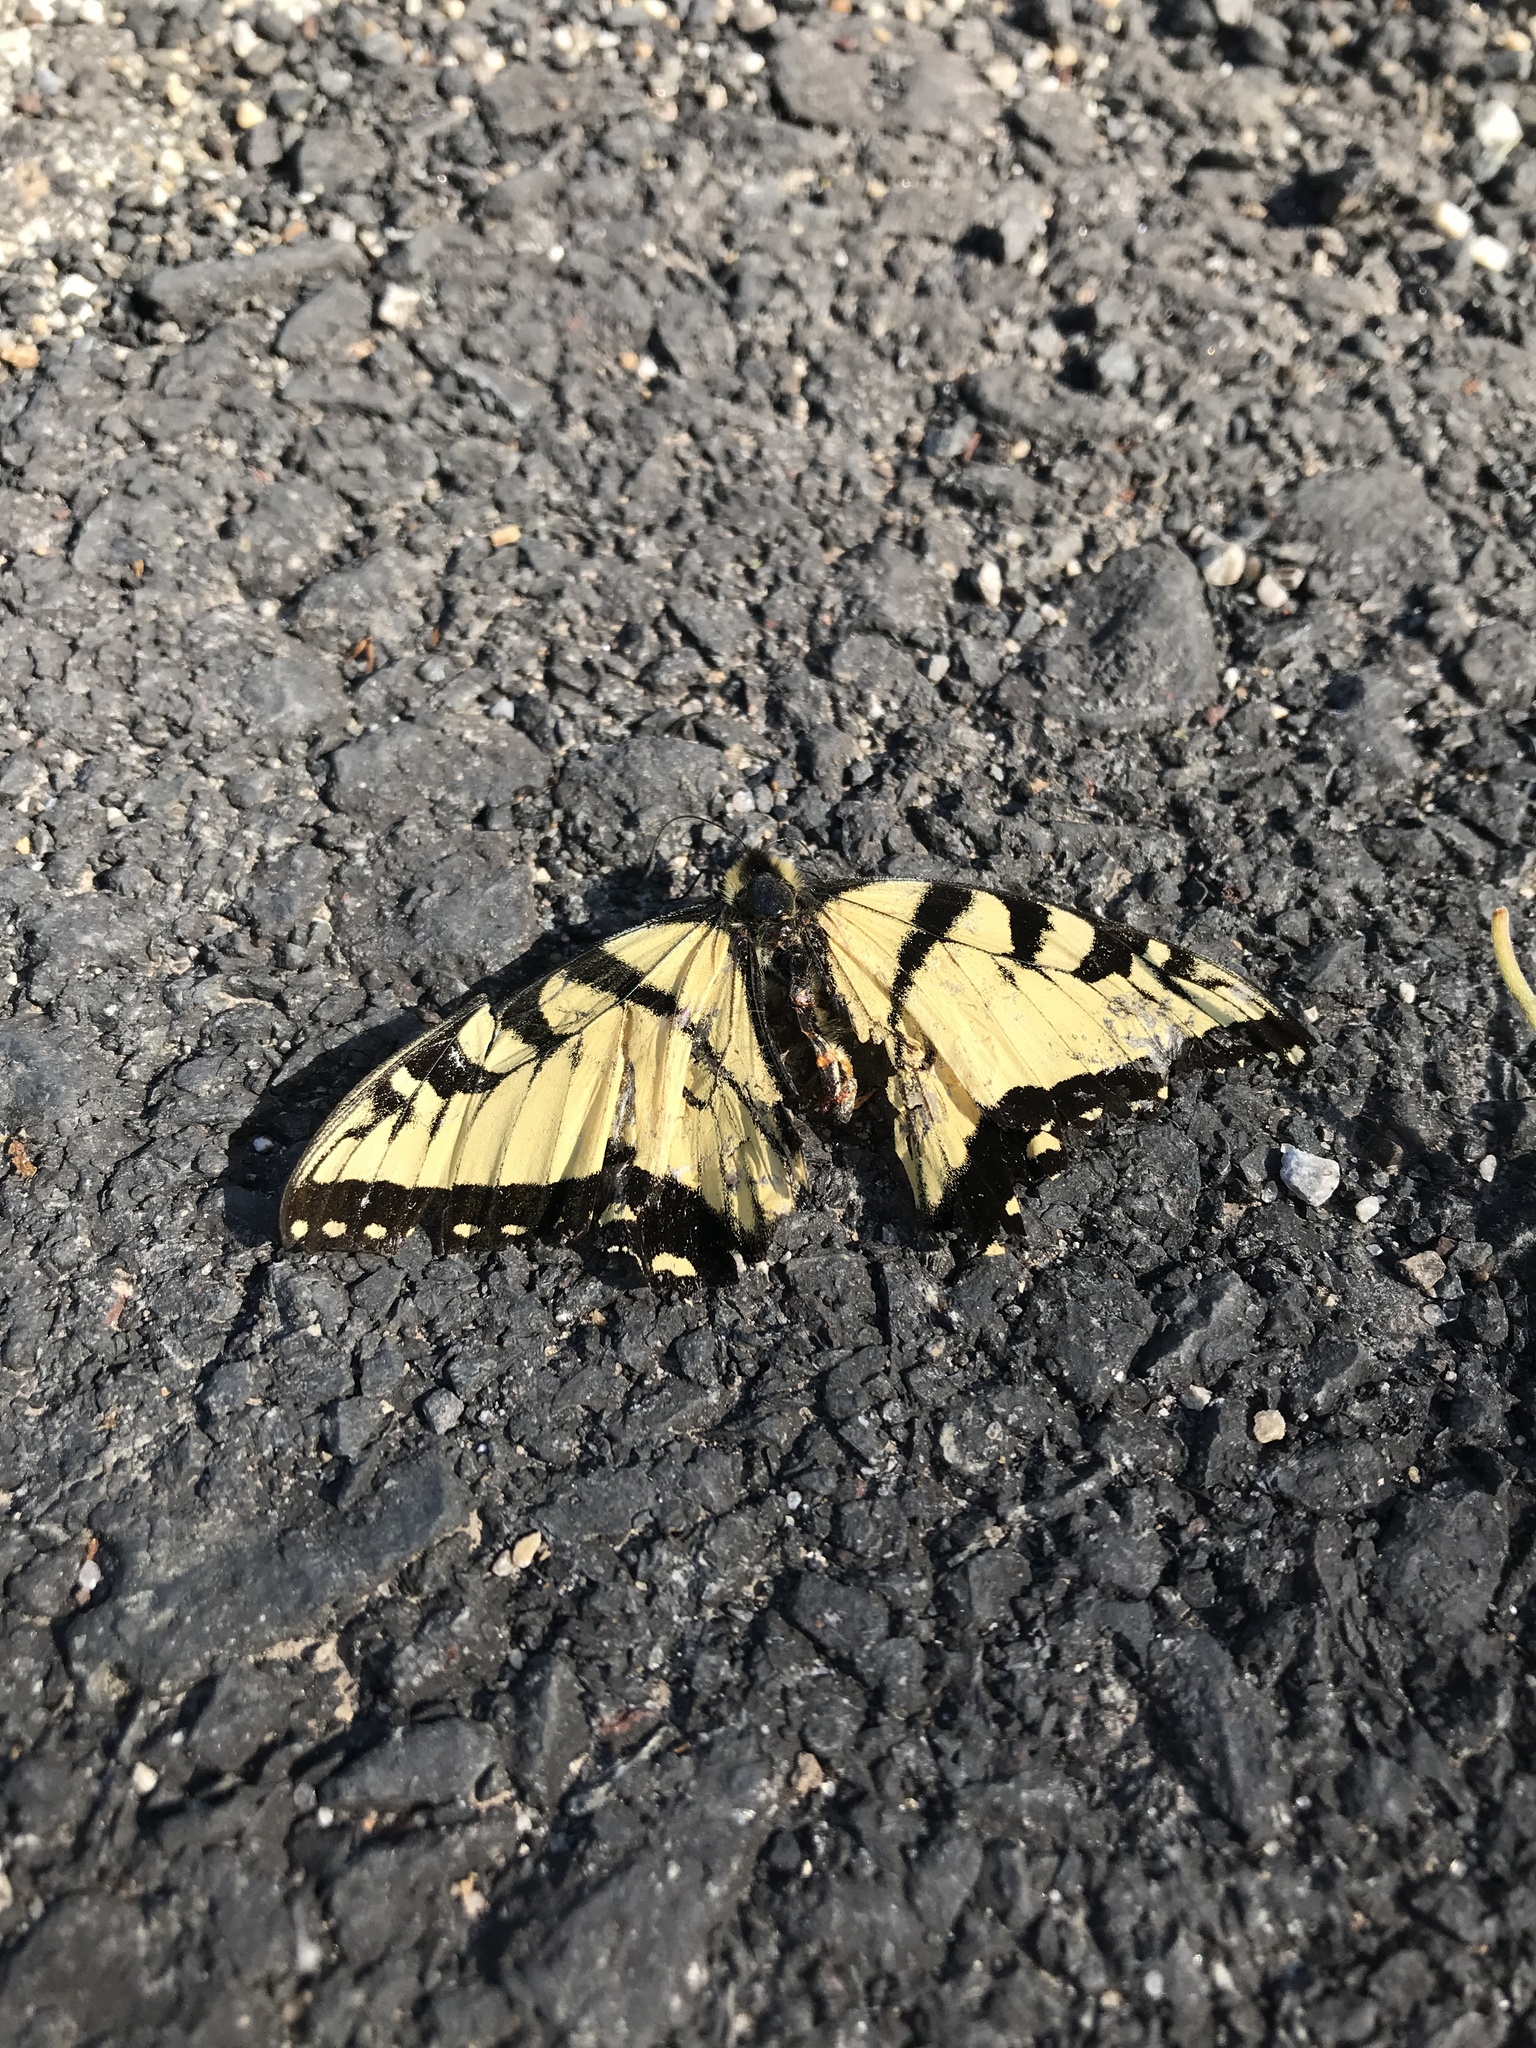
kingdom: Animalia
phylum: Arthropoda
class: Insecta
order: Lepidoptera
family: Papilionidae
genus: Papilio
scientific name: Papilio glaucus
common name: Tiger swallowtail
